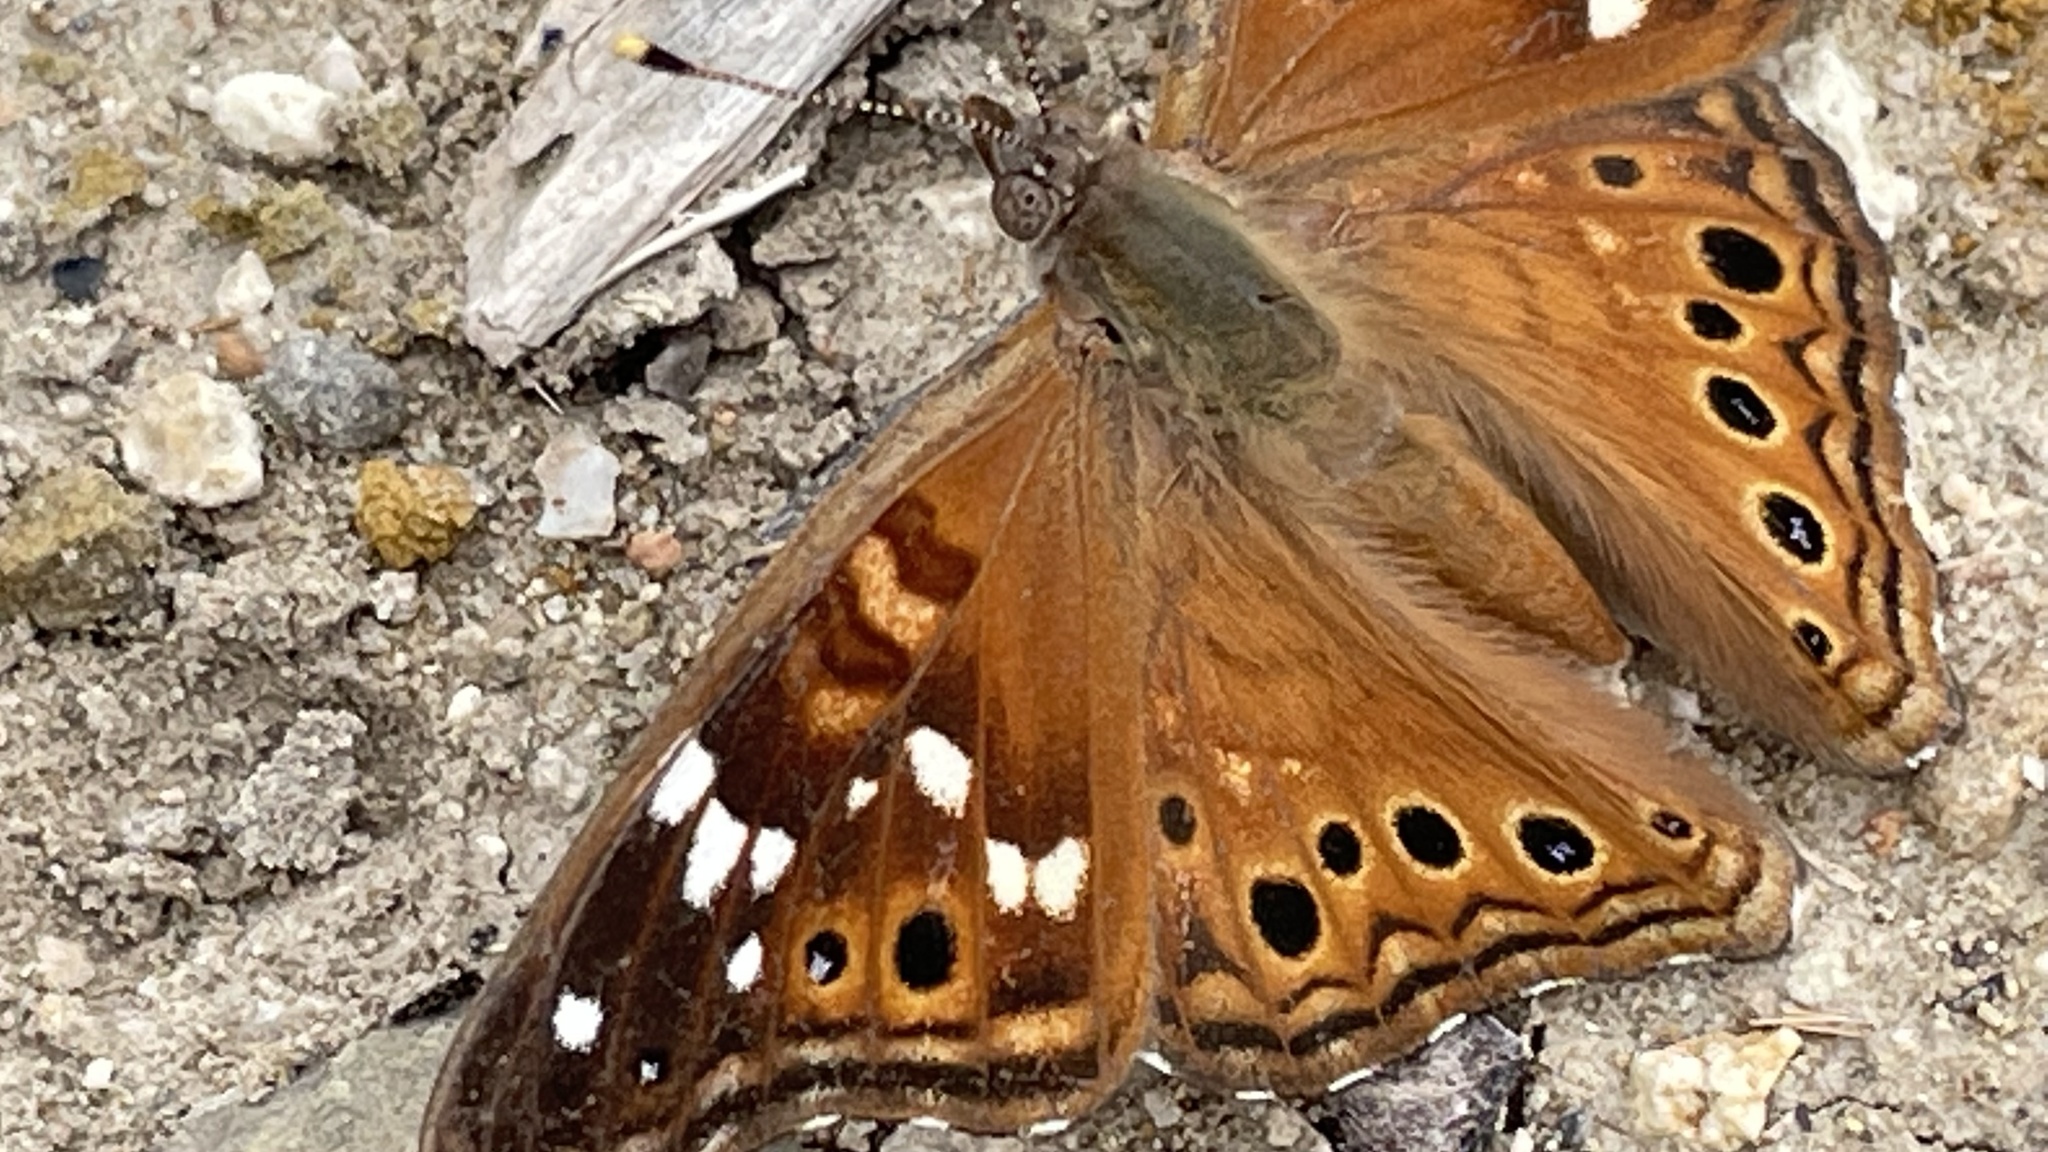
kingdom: Animalia
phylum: Arthropoda
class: Insecta
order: Lepidoptera
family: Nymphalidae
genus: Asterocampa
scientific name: Asterocampa leilia
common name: Empress leilia
